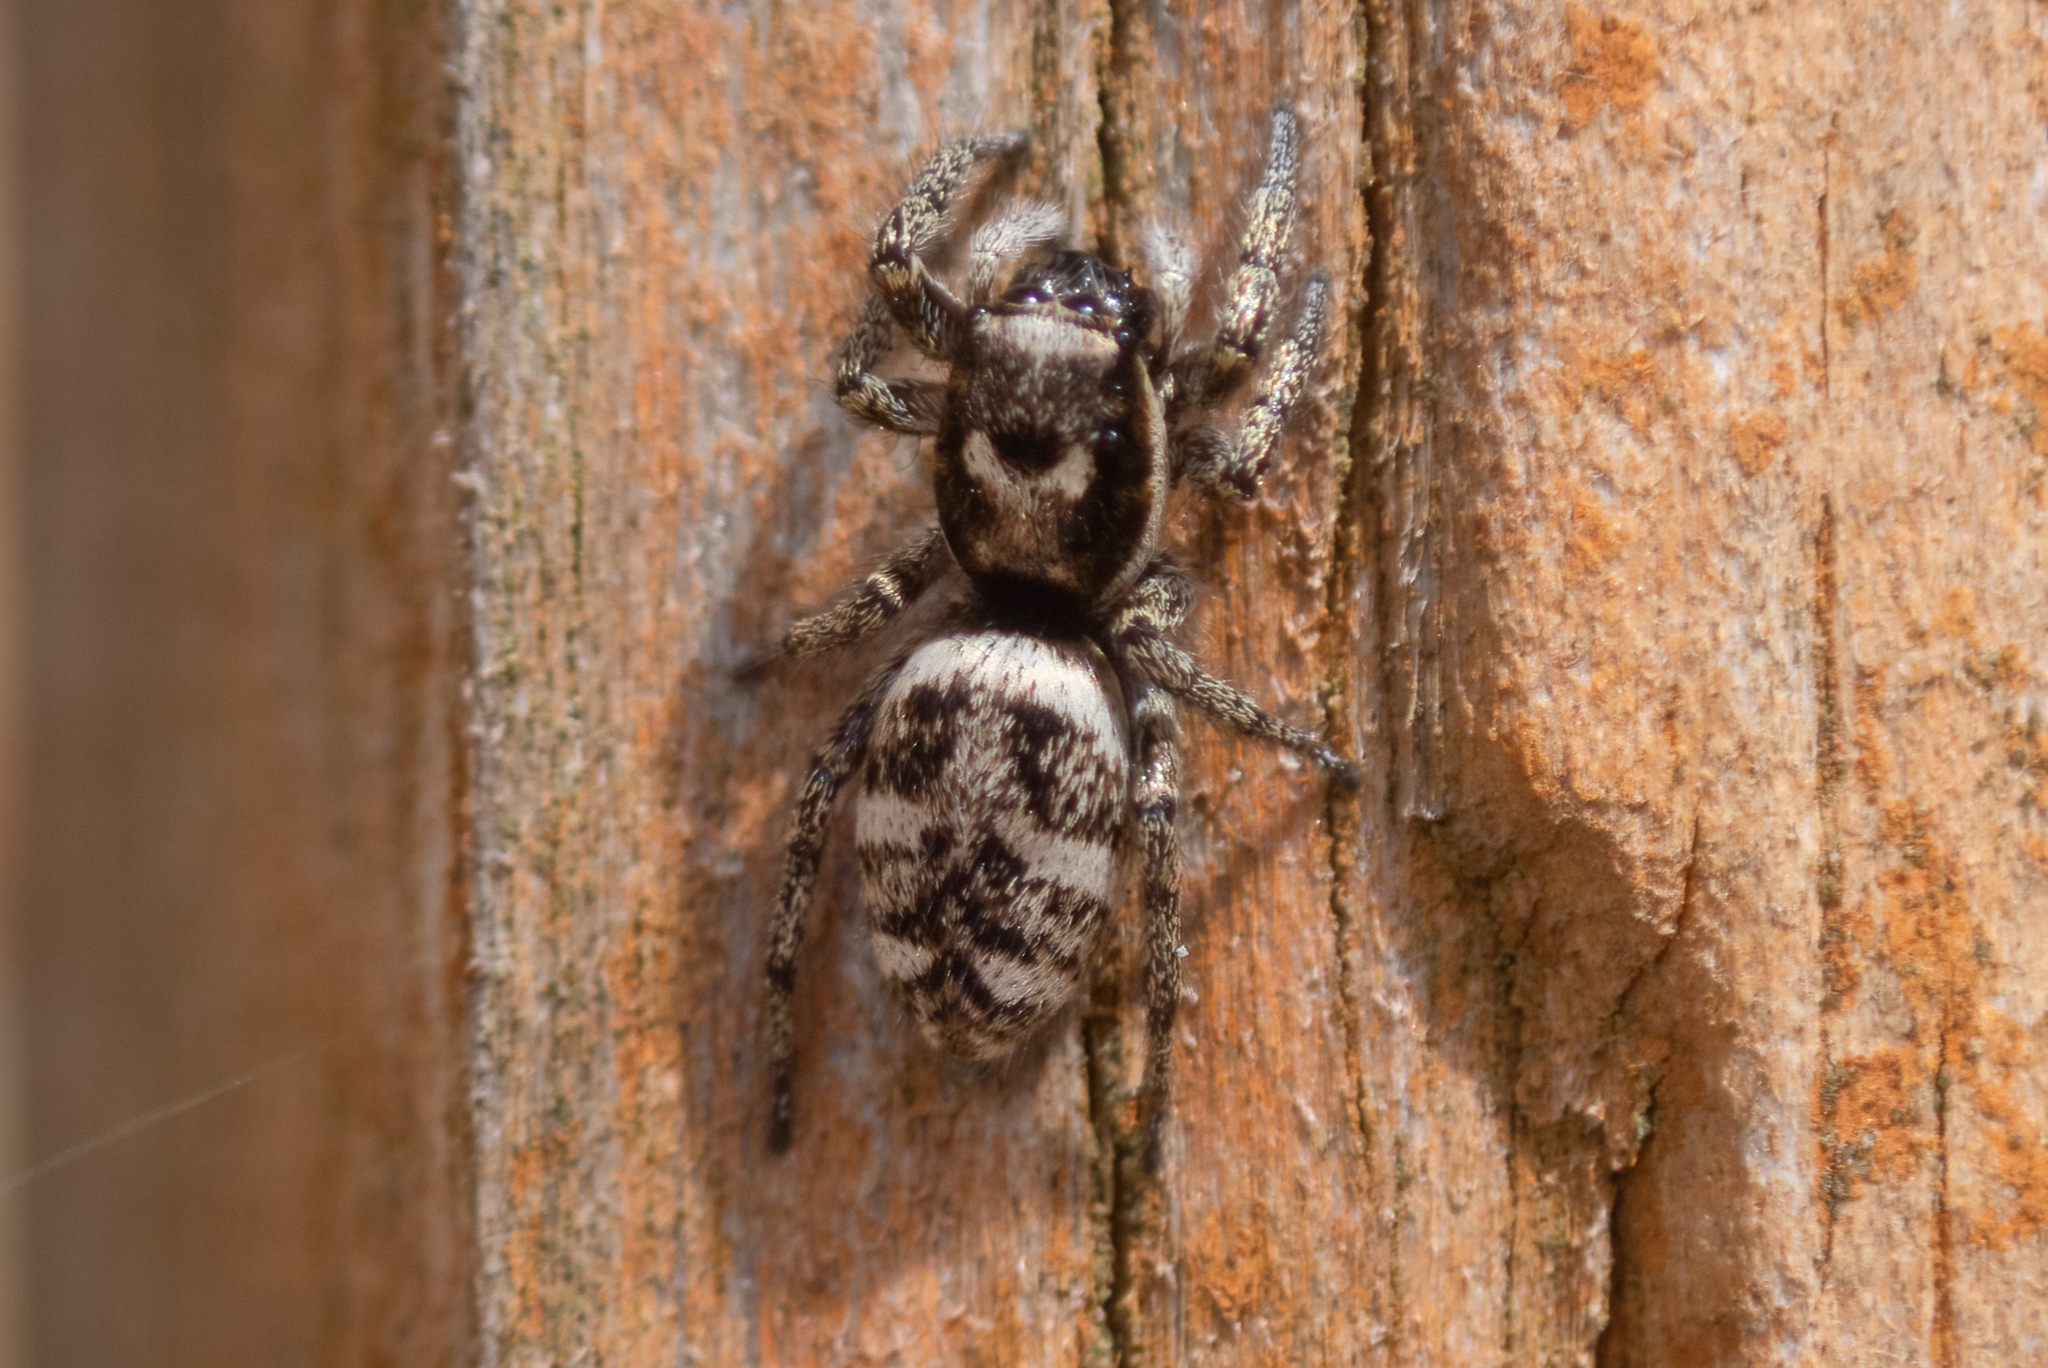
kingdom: Animalia
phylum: Arthropoda
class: Arachnida
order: Araneae
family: Salticidae
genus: Salticus
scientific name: Salticus scenicus
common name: Zebra jumper
